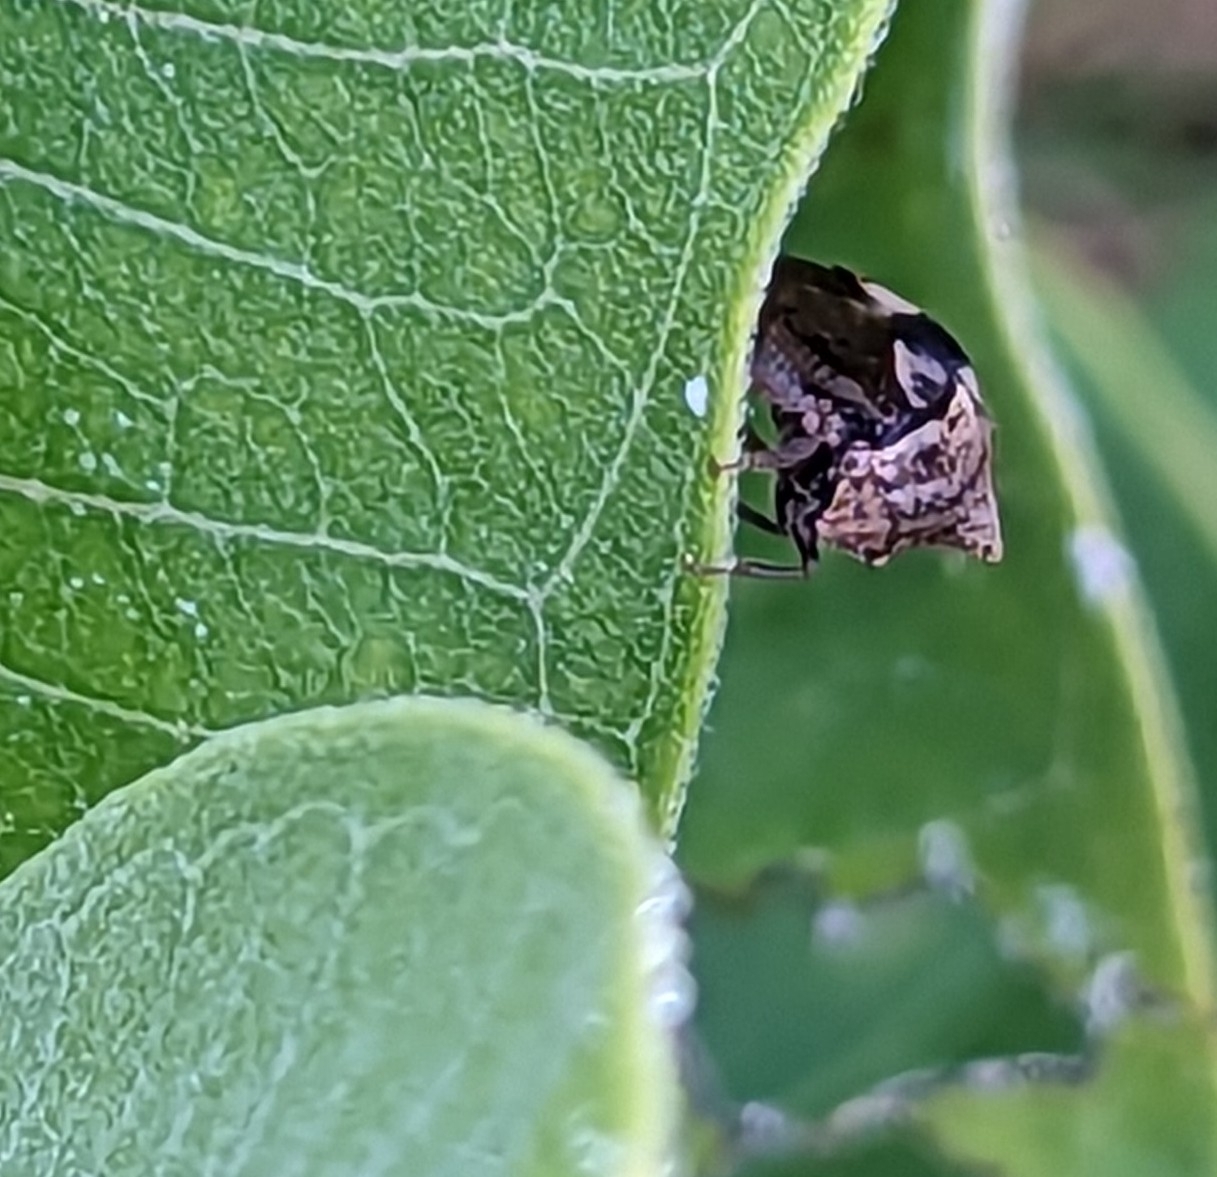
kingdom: Animalia
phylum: Arthropoda
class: Insecta
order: Hemiptera
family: Membracidae
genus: Stictocephala
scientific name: Stictocephala diceros
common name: Two-horned treehopper
